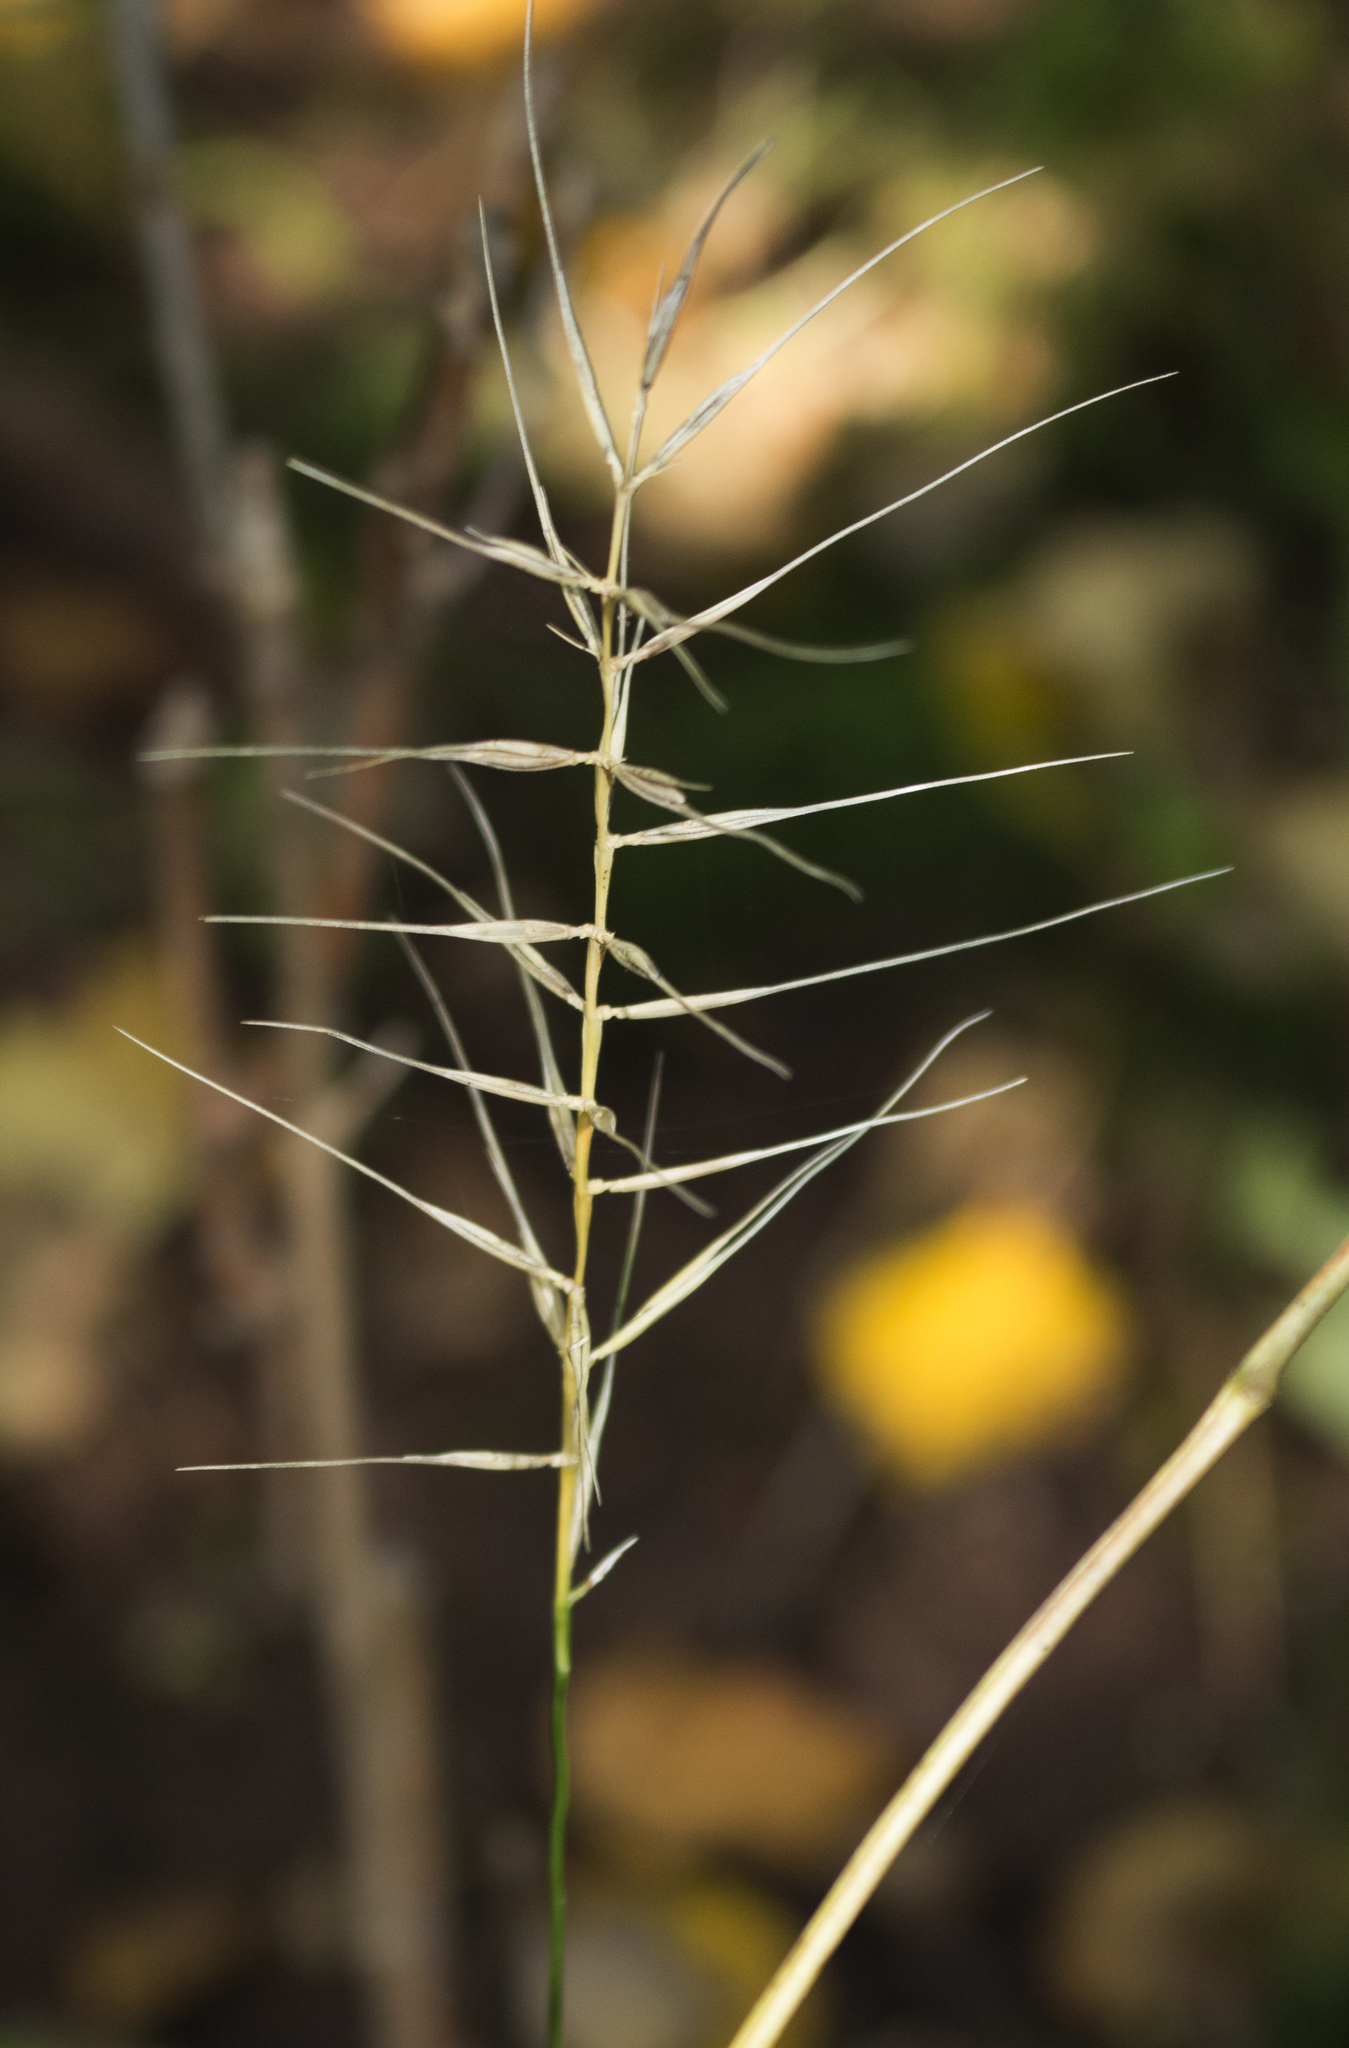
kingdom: Plantae
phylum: Tracheophyta
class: Liliopsida
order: Poales
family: Poaceae
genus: Elymus
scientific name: Elymus hystrix
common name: Bottlebrush grass
